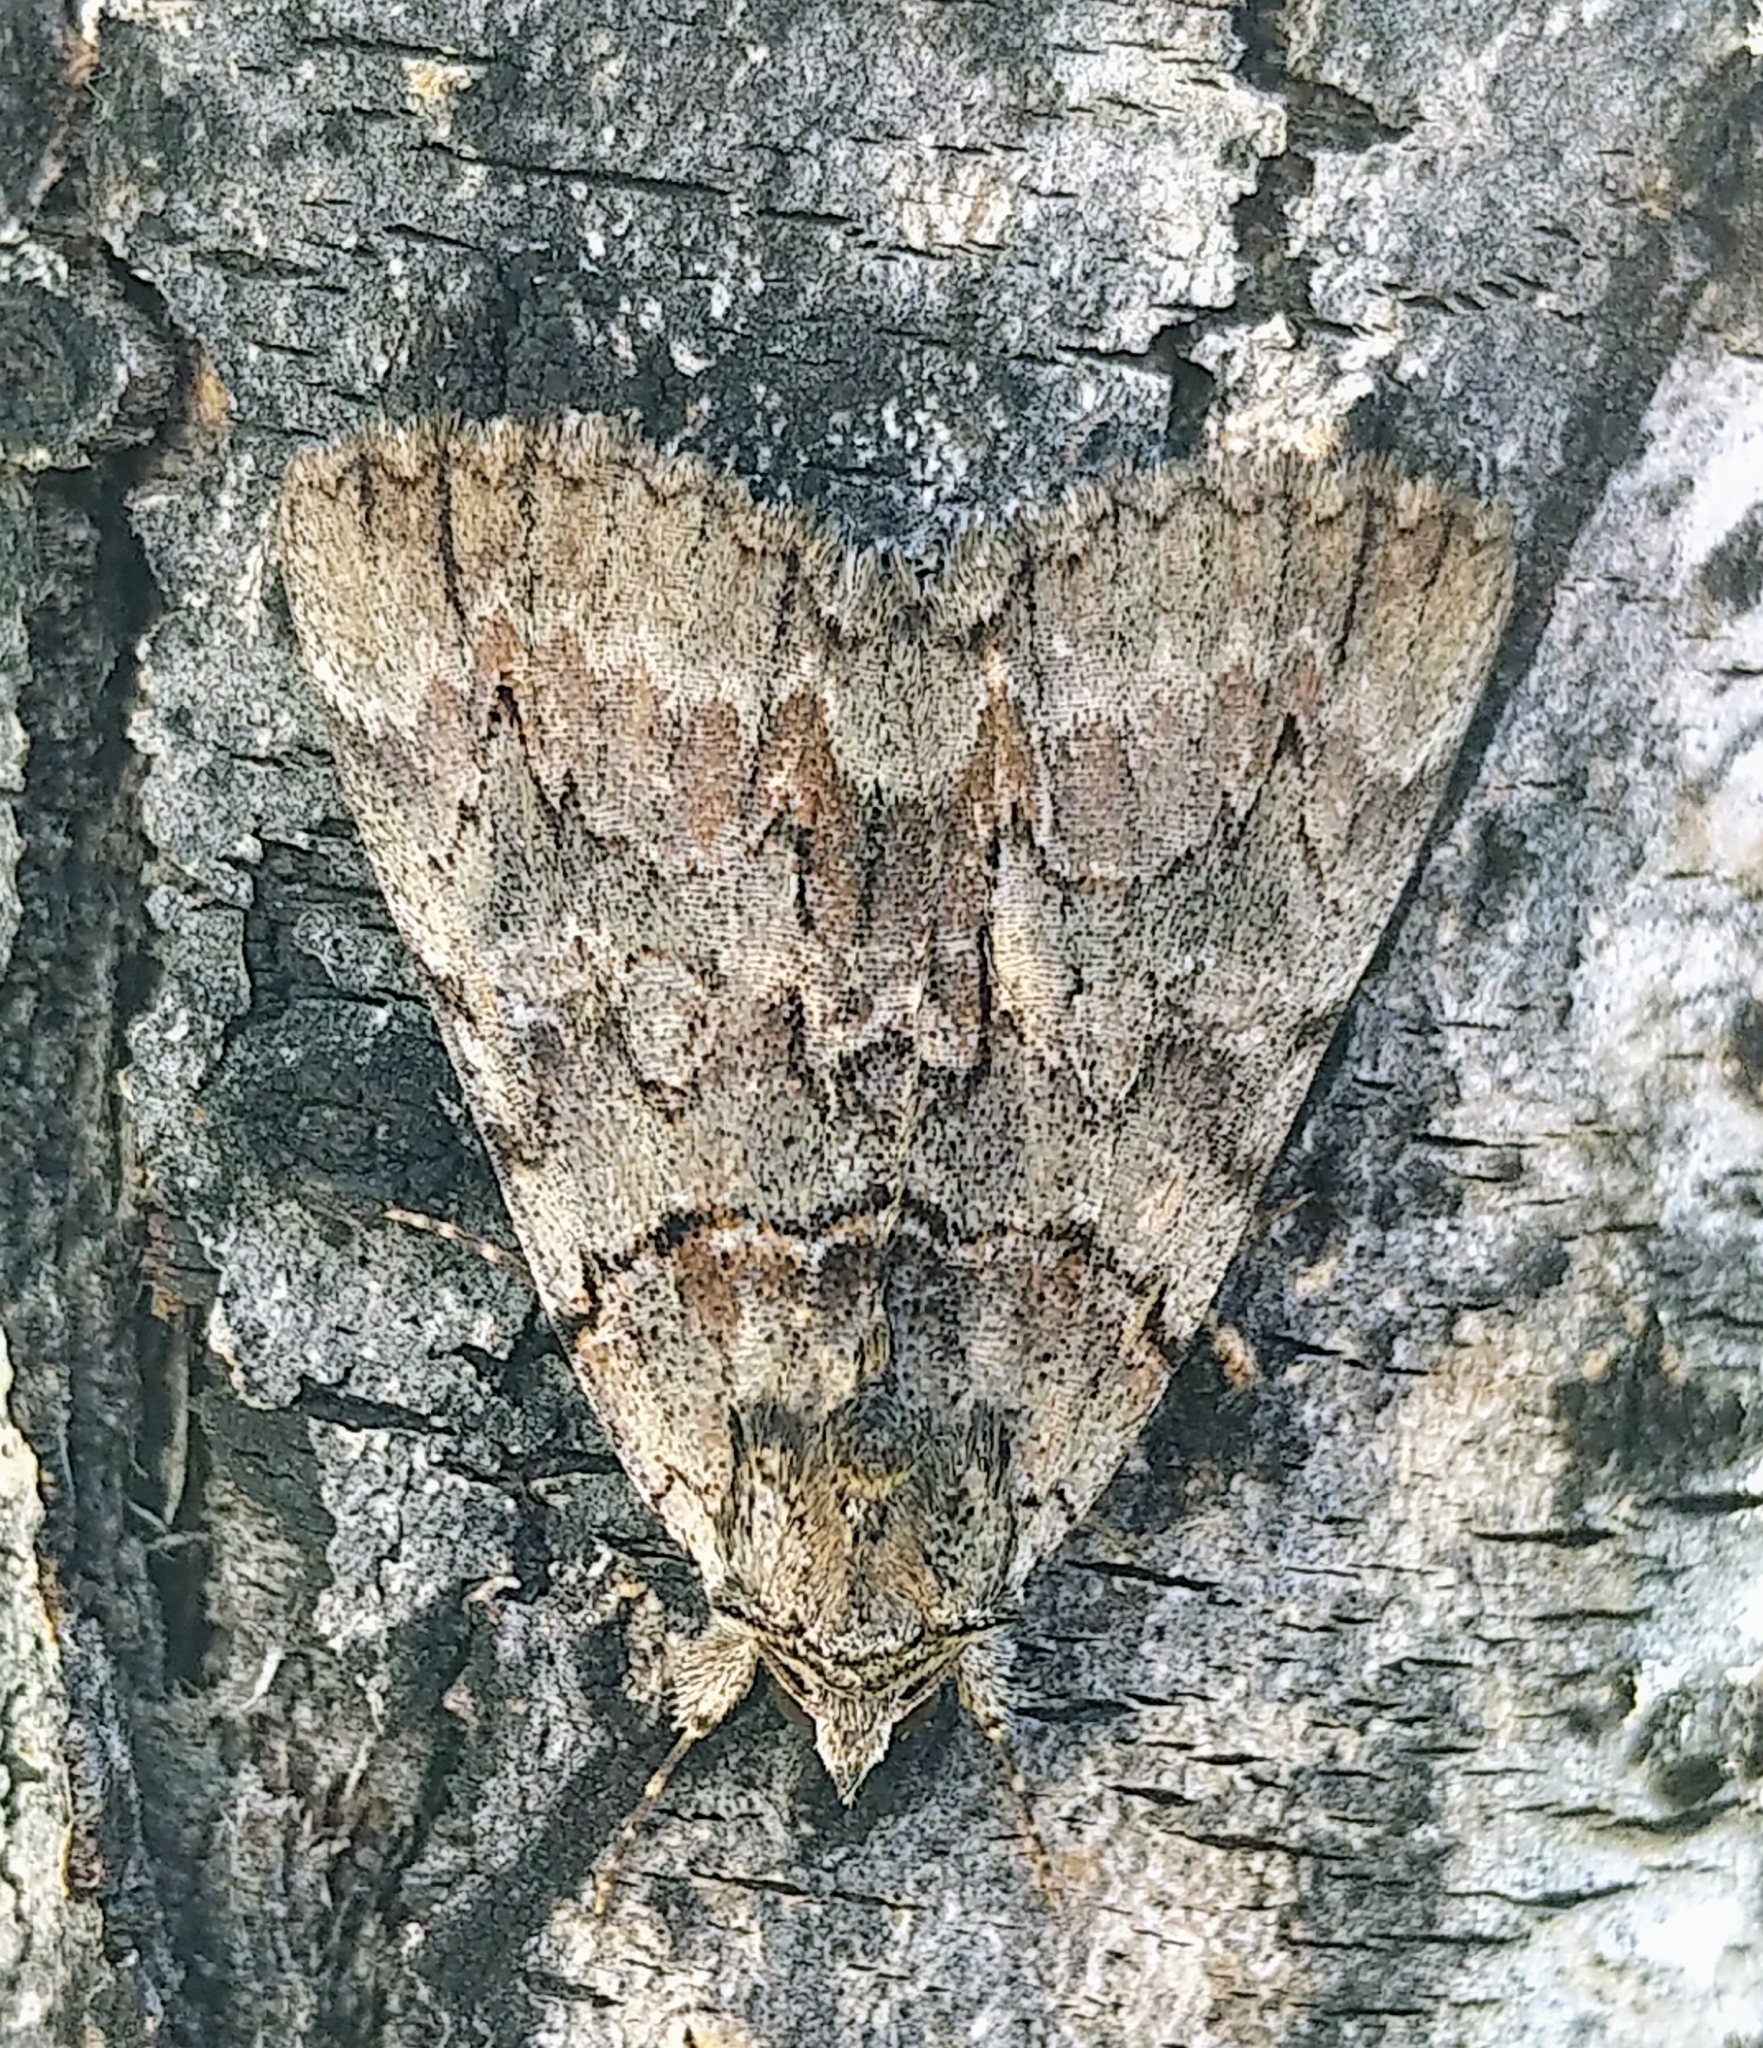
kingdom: Animalia
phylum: Arthropoda
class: Insecta
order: Lepidoptera
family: Erebidae
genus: Catocala
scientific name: Catocala praeclara
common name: Praeclara underwing
